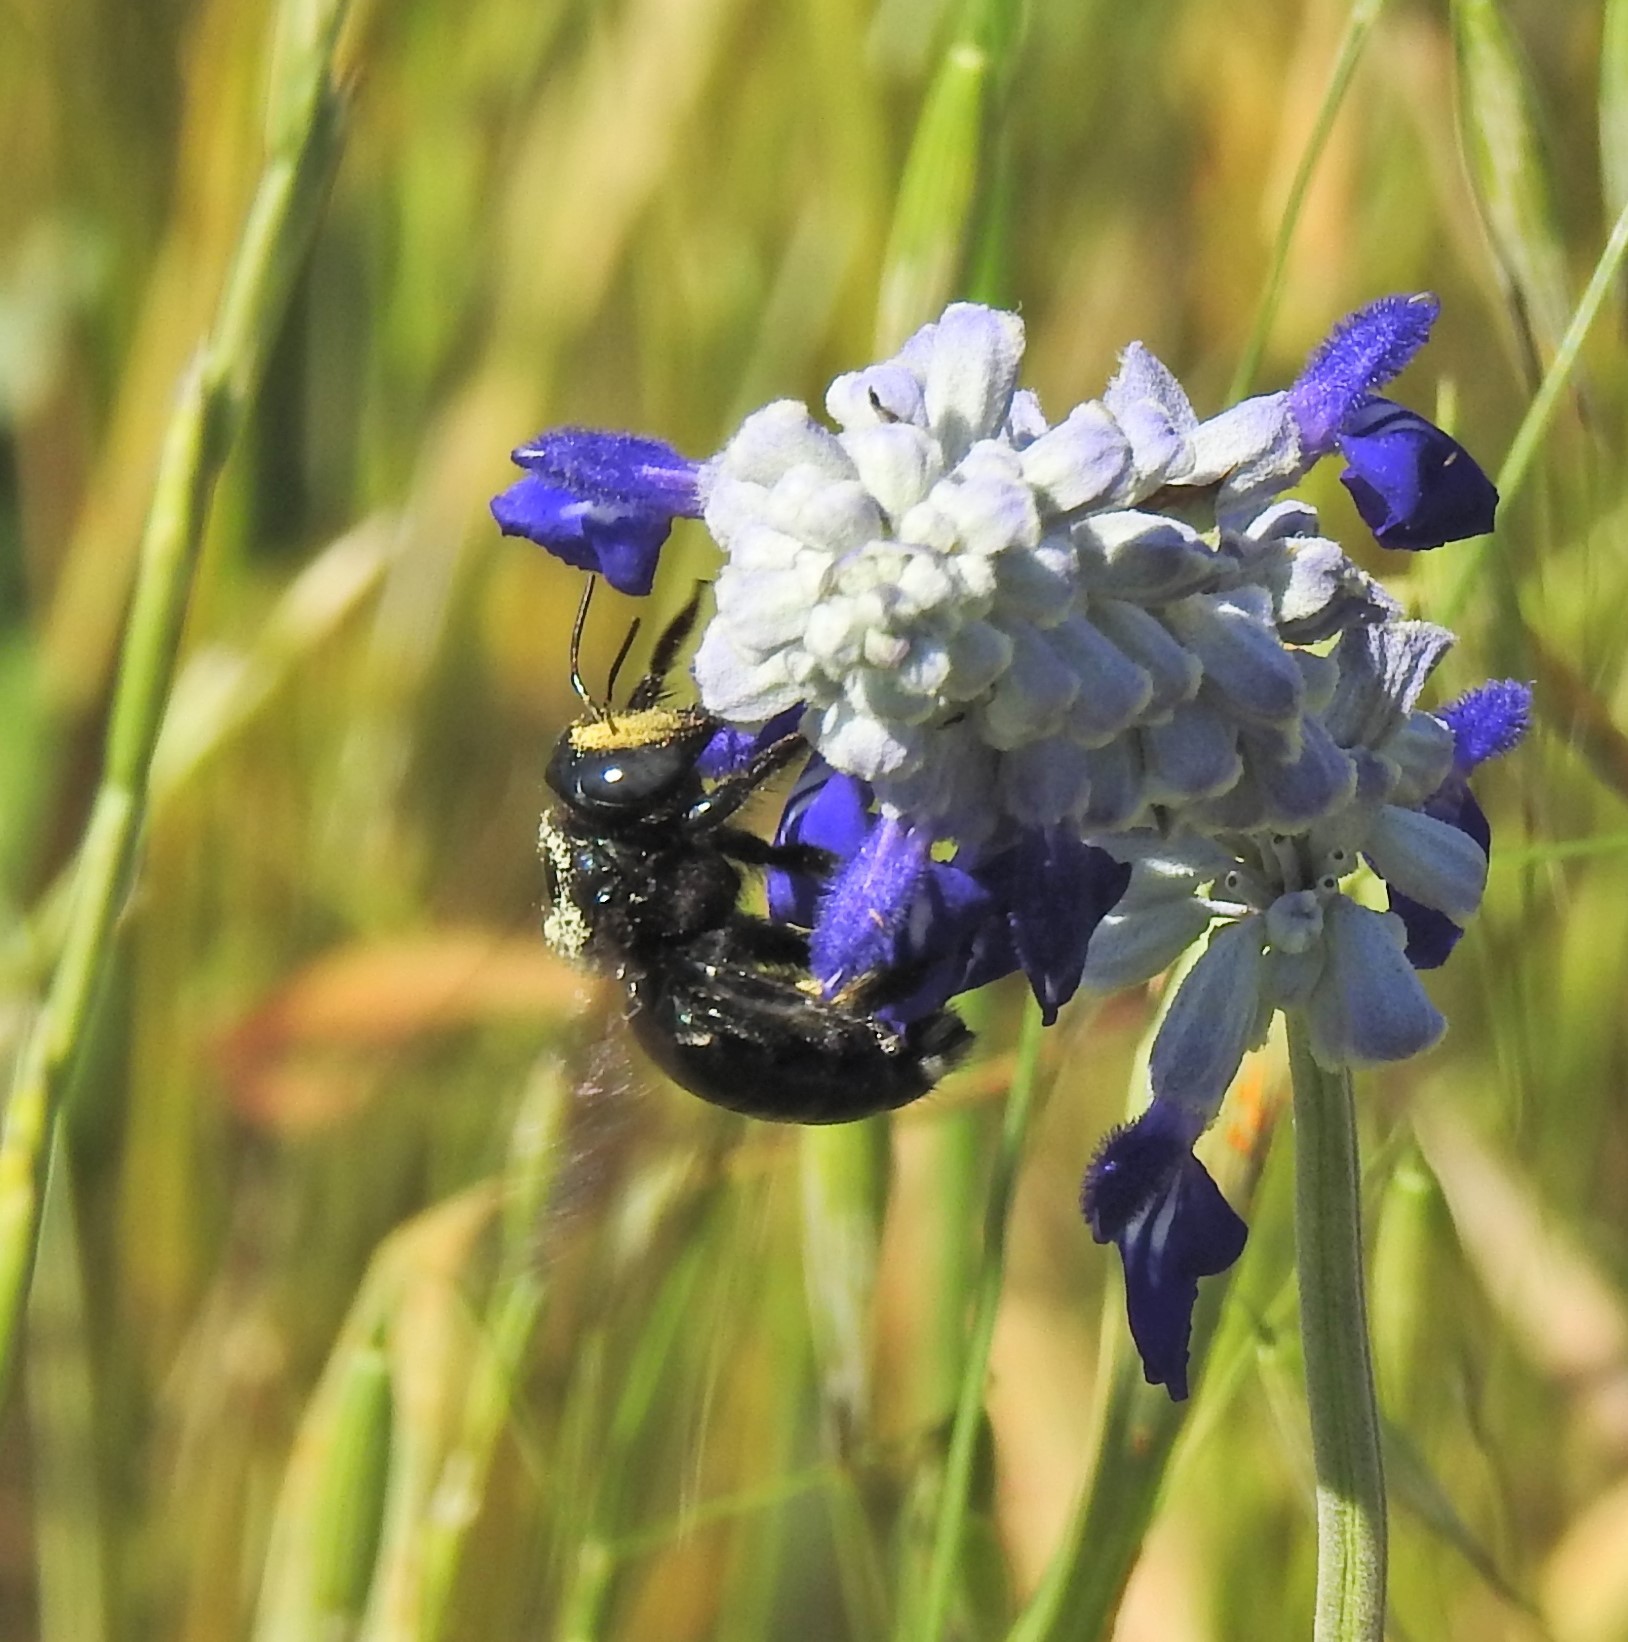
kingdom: Animalia
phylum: Arthropoda
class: Insecta
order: Hymenoptera
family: Apidae
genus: Xylocopa
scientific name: Xylocopa micans
